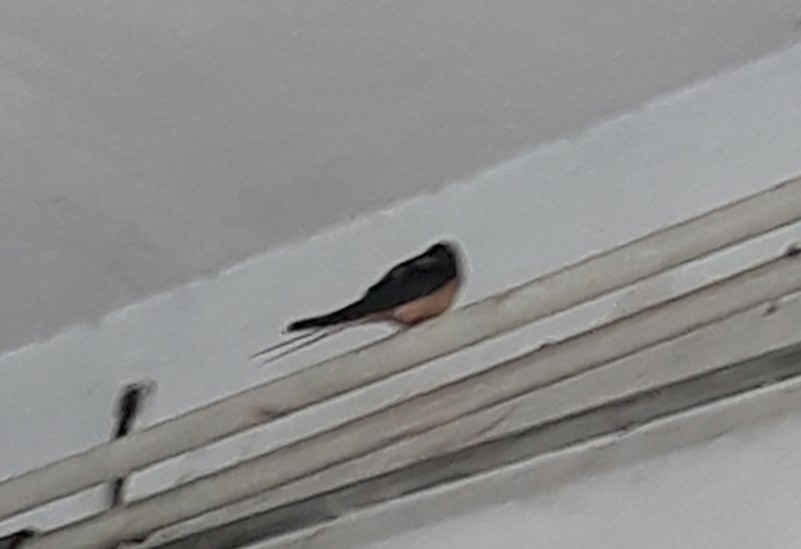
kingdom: Animalia
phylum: Chordata
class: Aves
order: Passeriformes
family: Hirundinidae
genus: Hirundo
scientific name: Hirundo rustica
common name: Barn swallow
